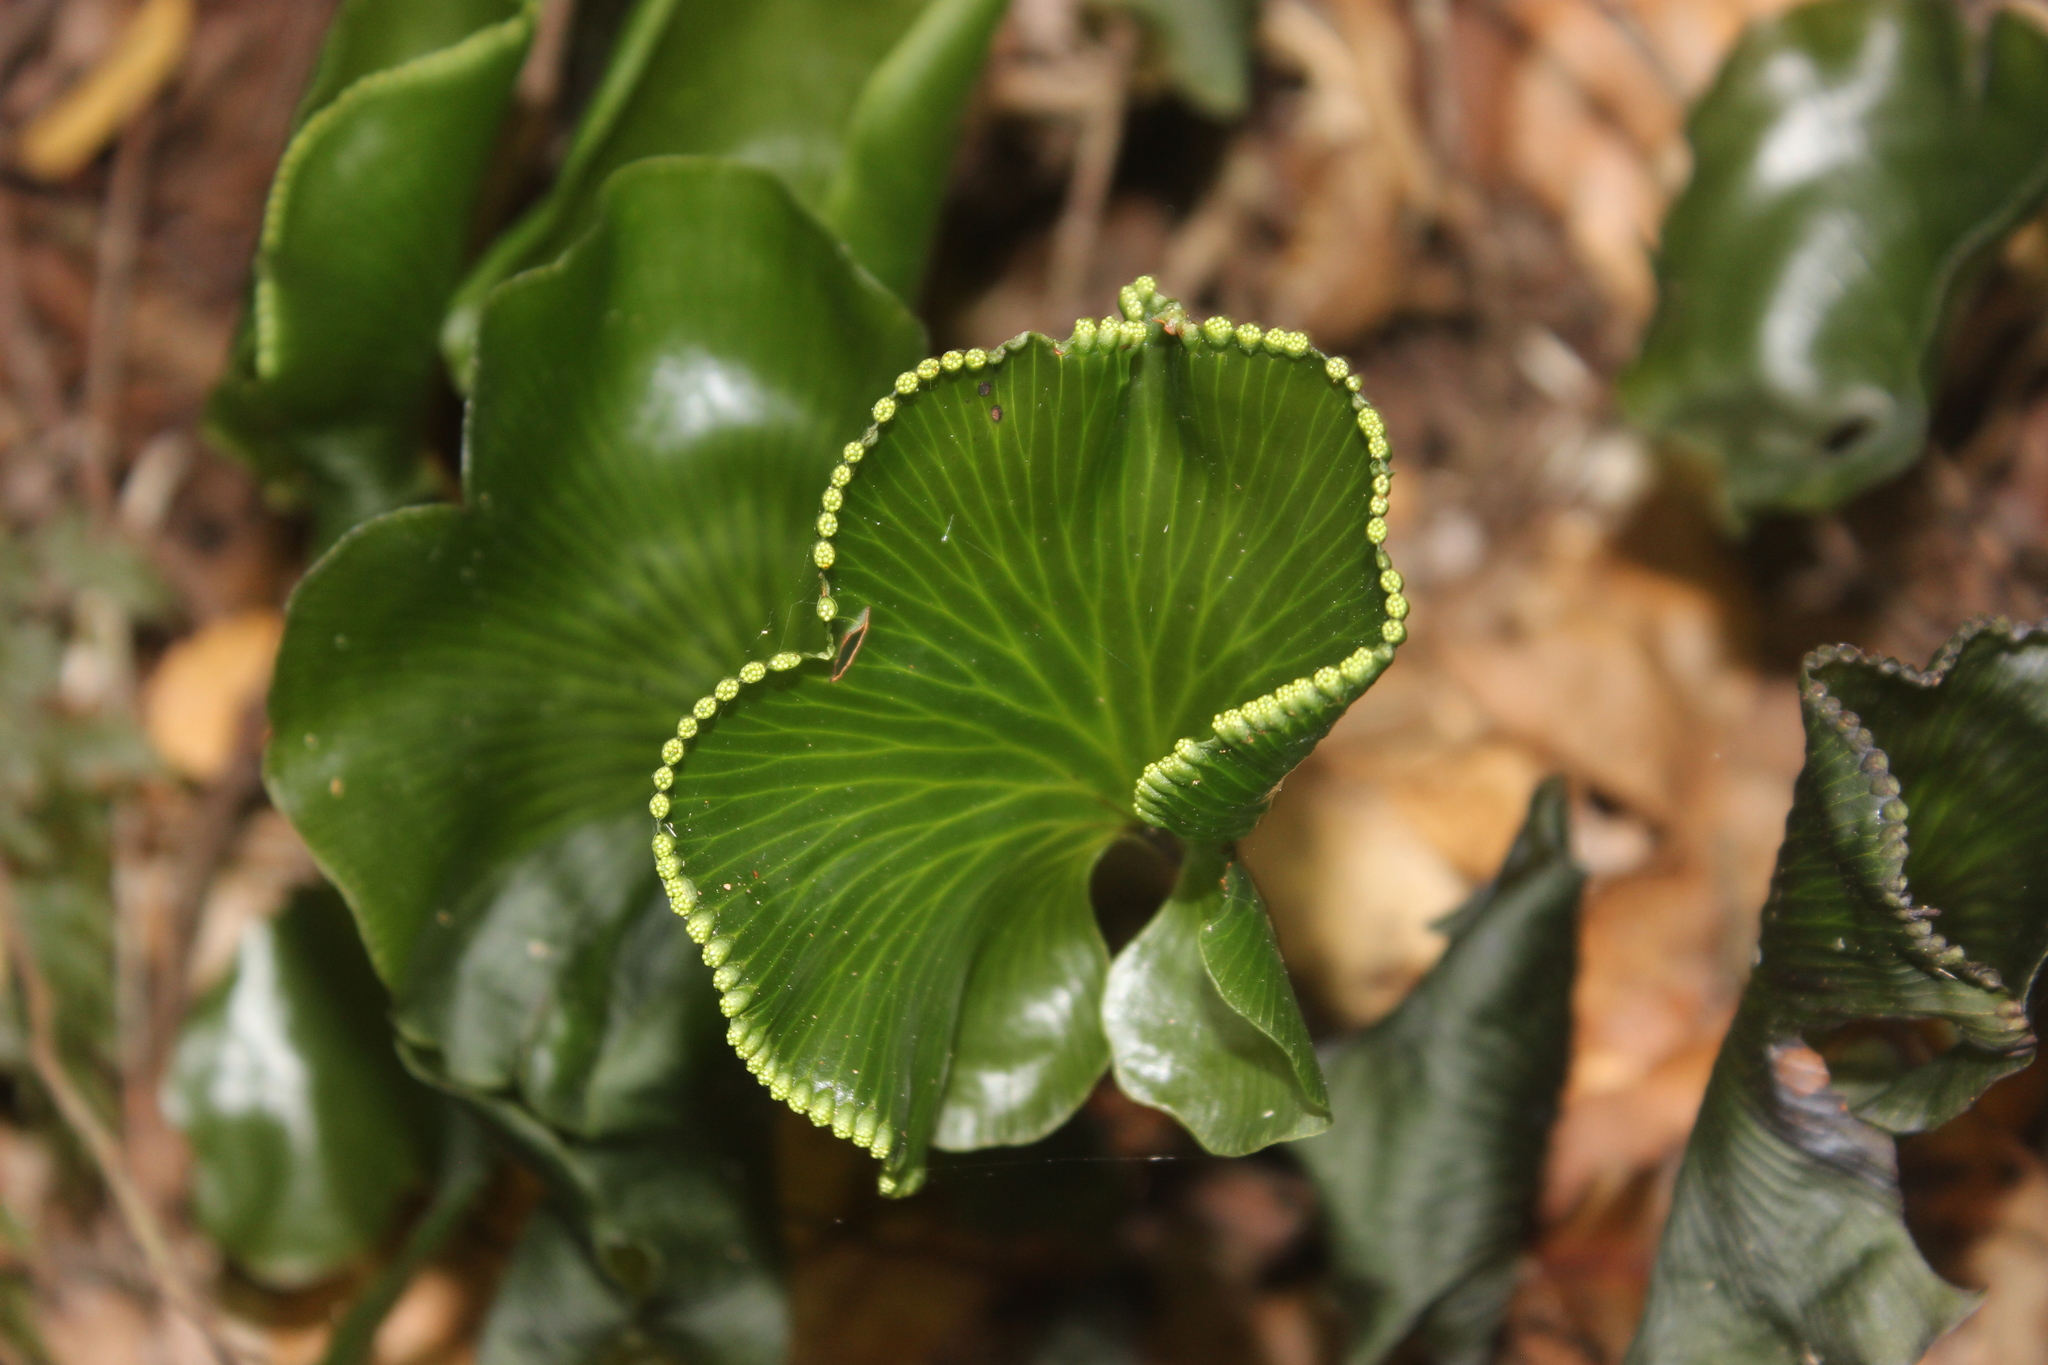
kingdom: Plantae
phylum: Tracheophyta
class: Polypodiopsida
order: Hymenophyllales
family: Hymenophyllaceae
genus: Hymenophyllum
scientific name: Hymenophyllum nephrophyllum
